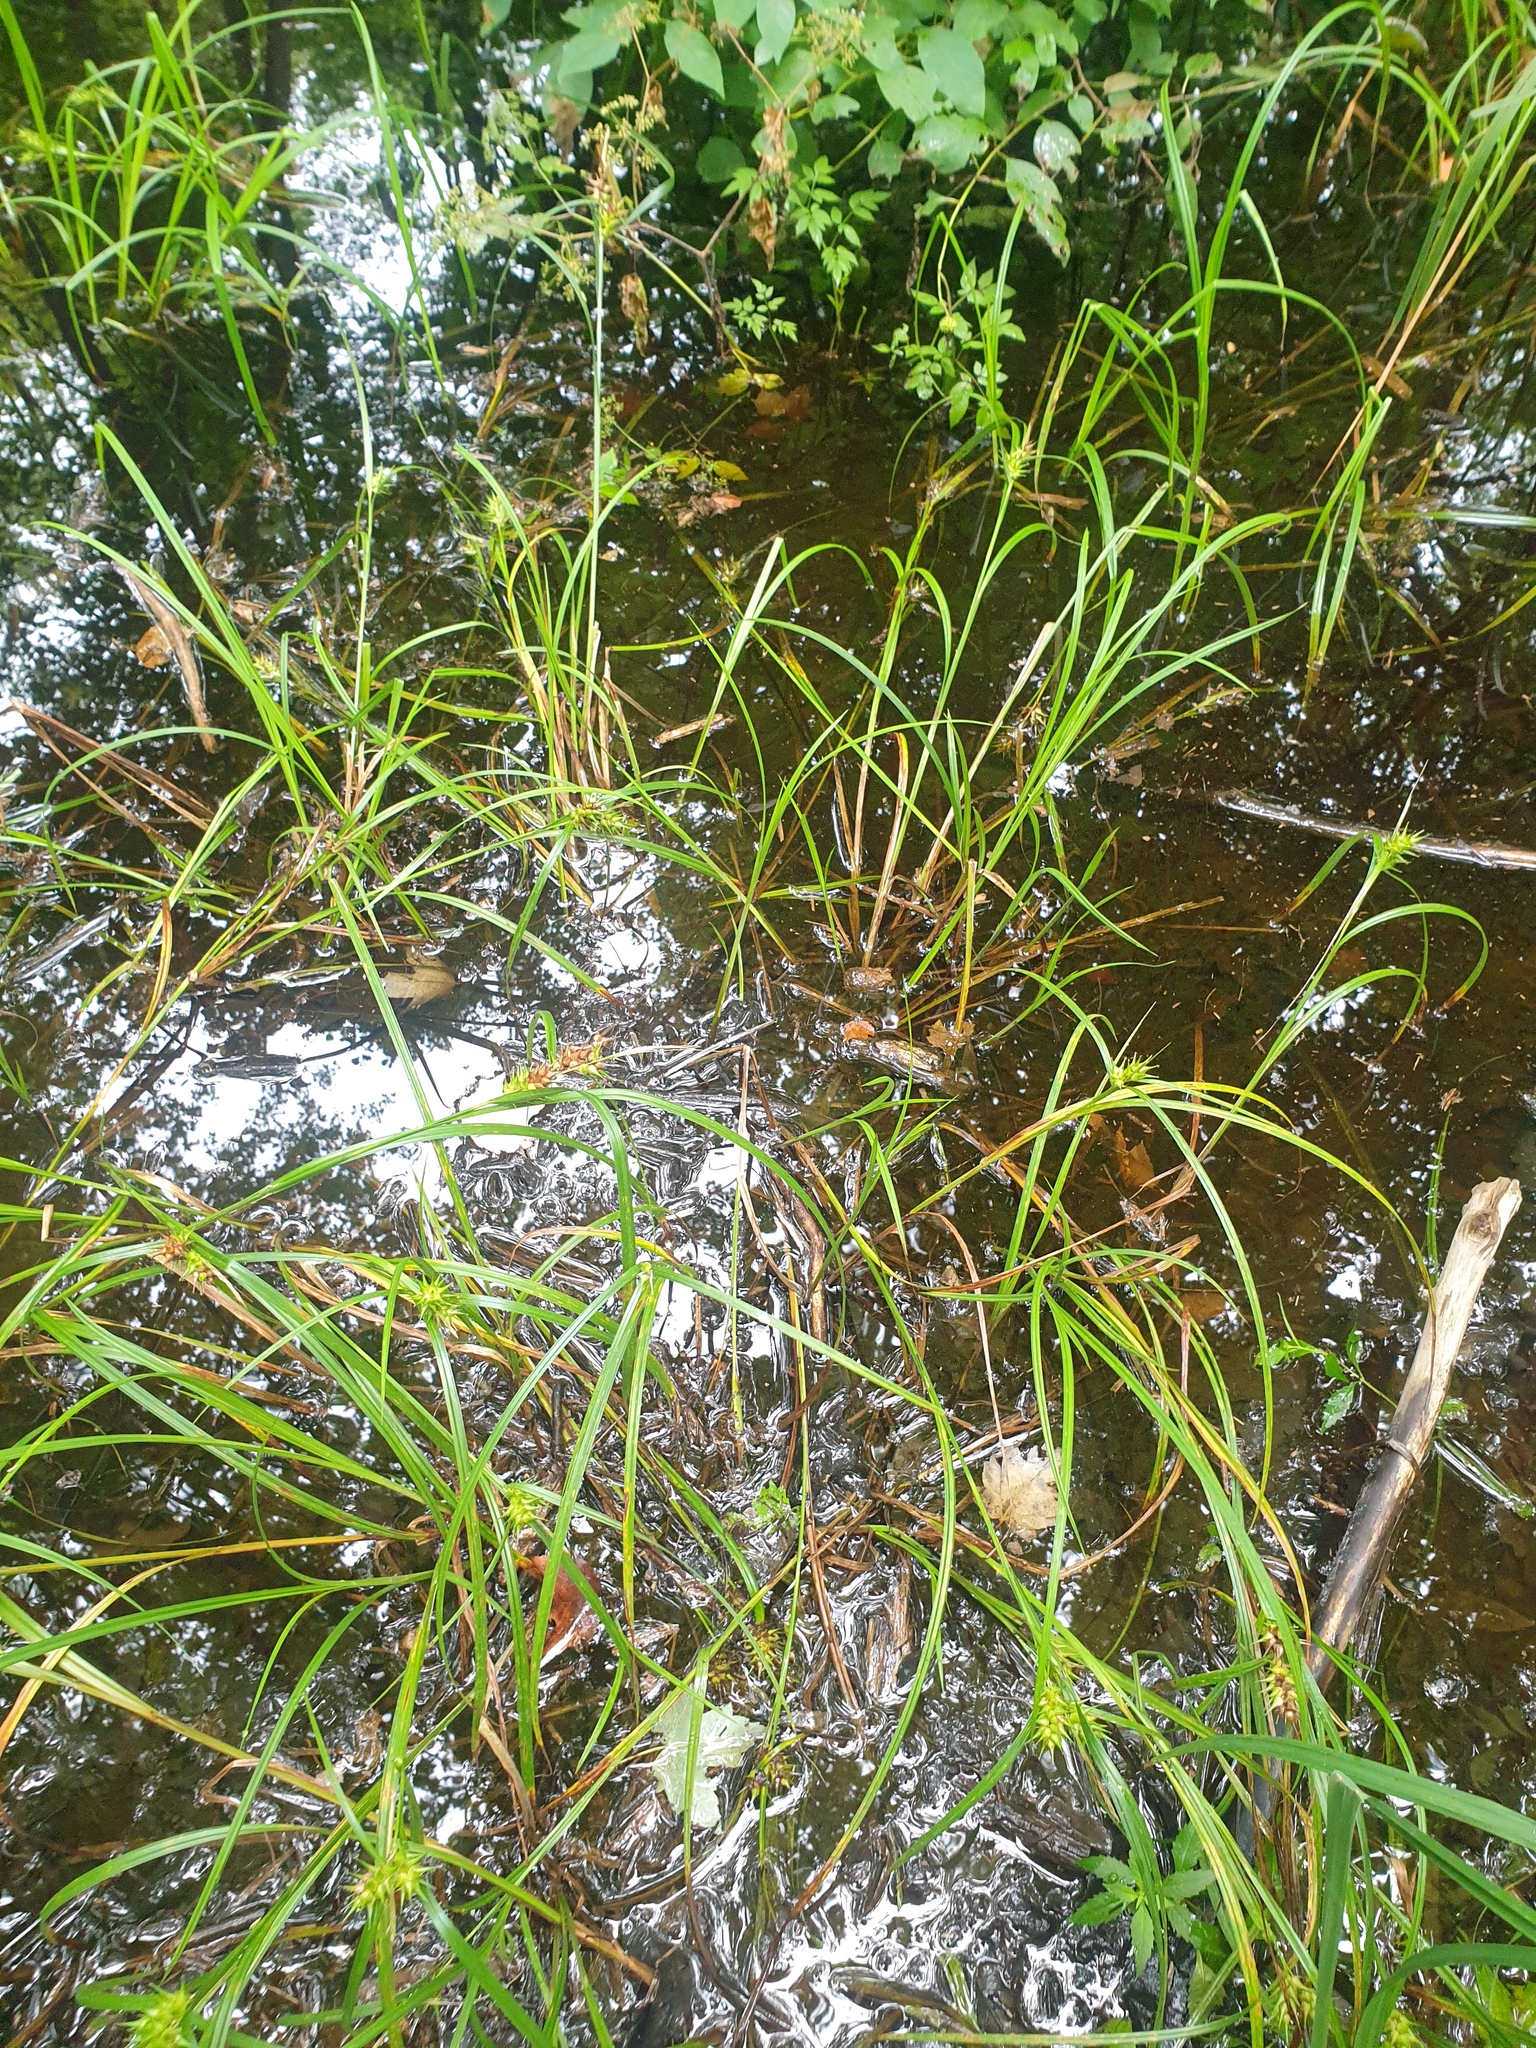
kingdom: Plantae
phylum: Tracheophyta
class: Liliopsida
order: Poales
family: Cyperaceae
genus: Carex
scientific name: Carex lupulina
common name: Hop sedge
